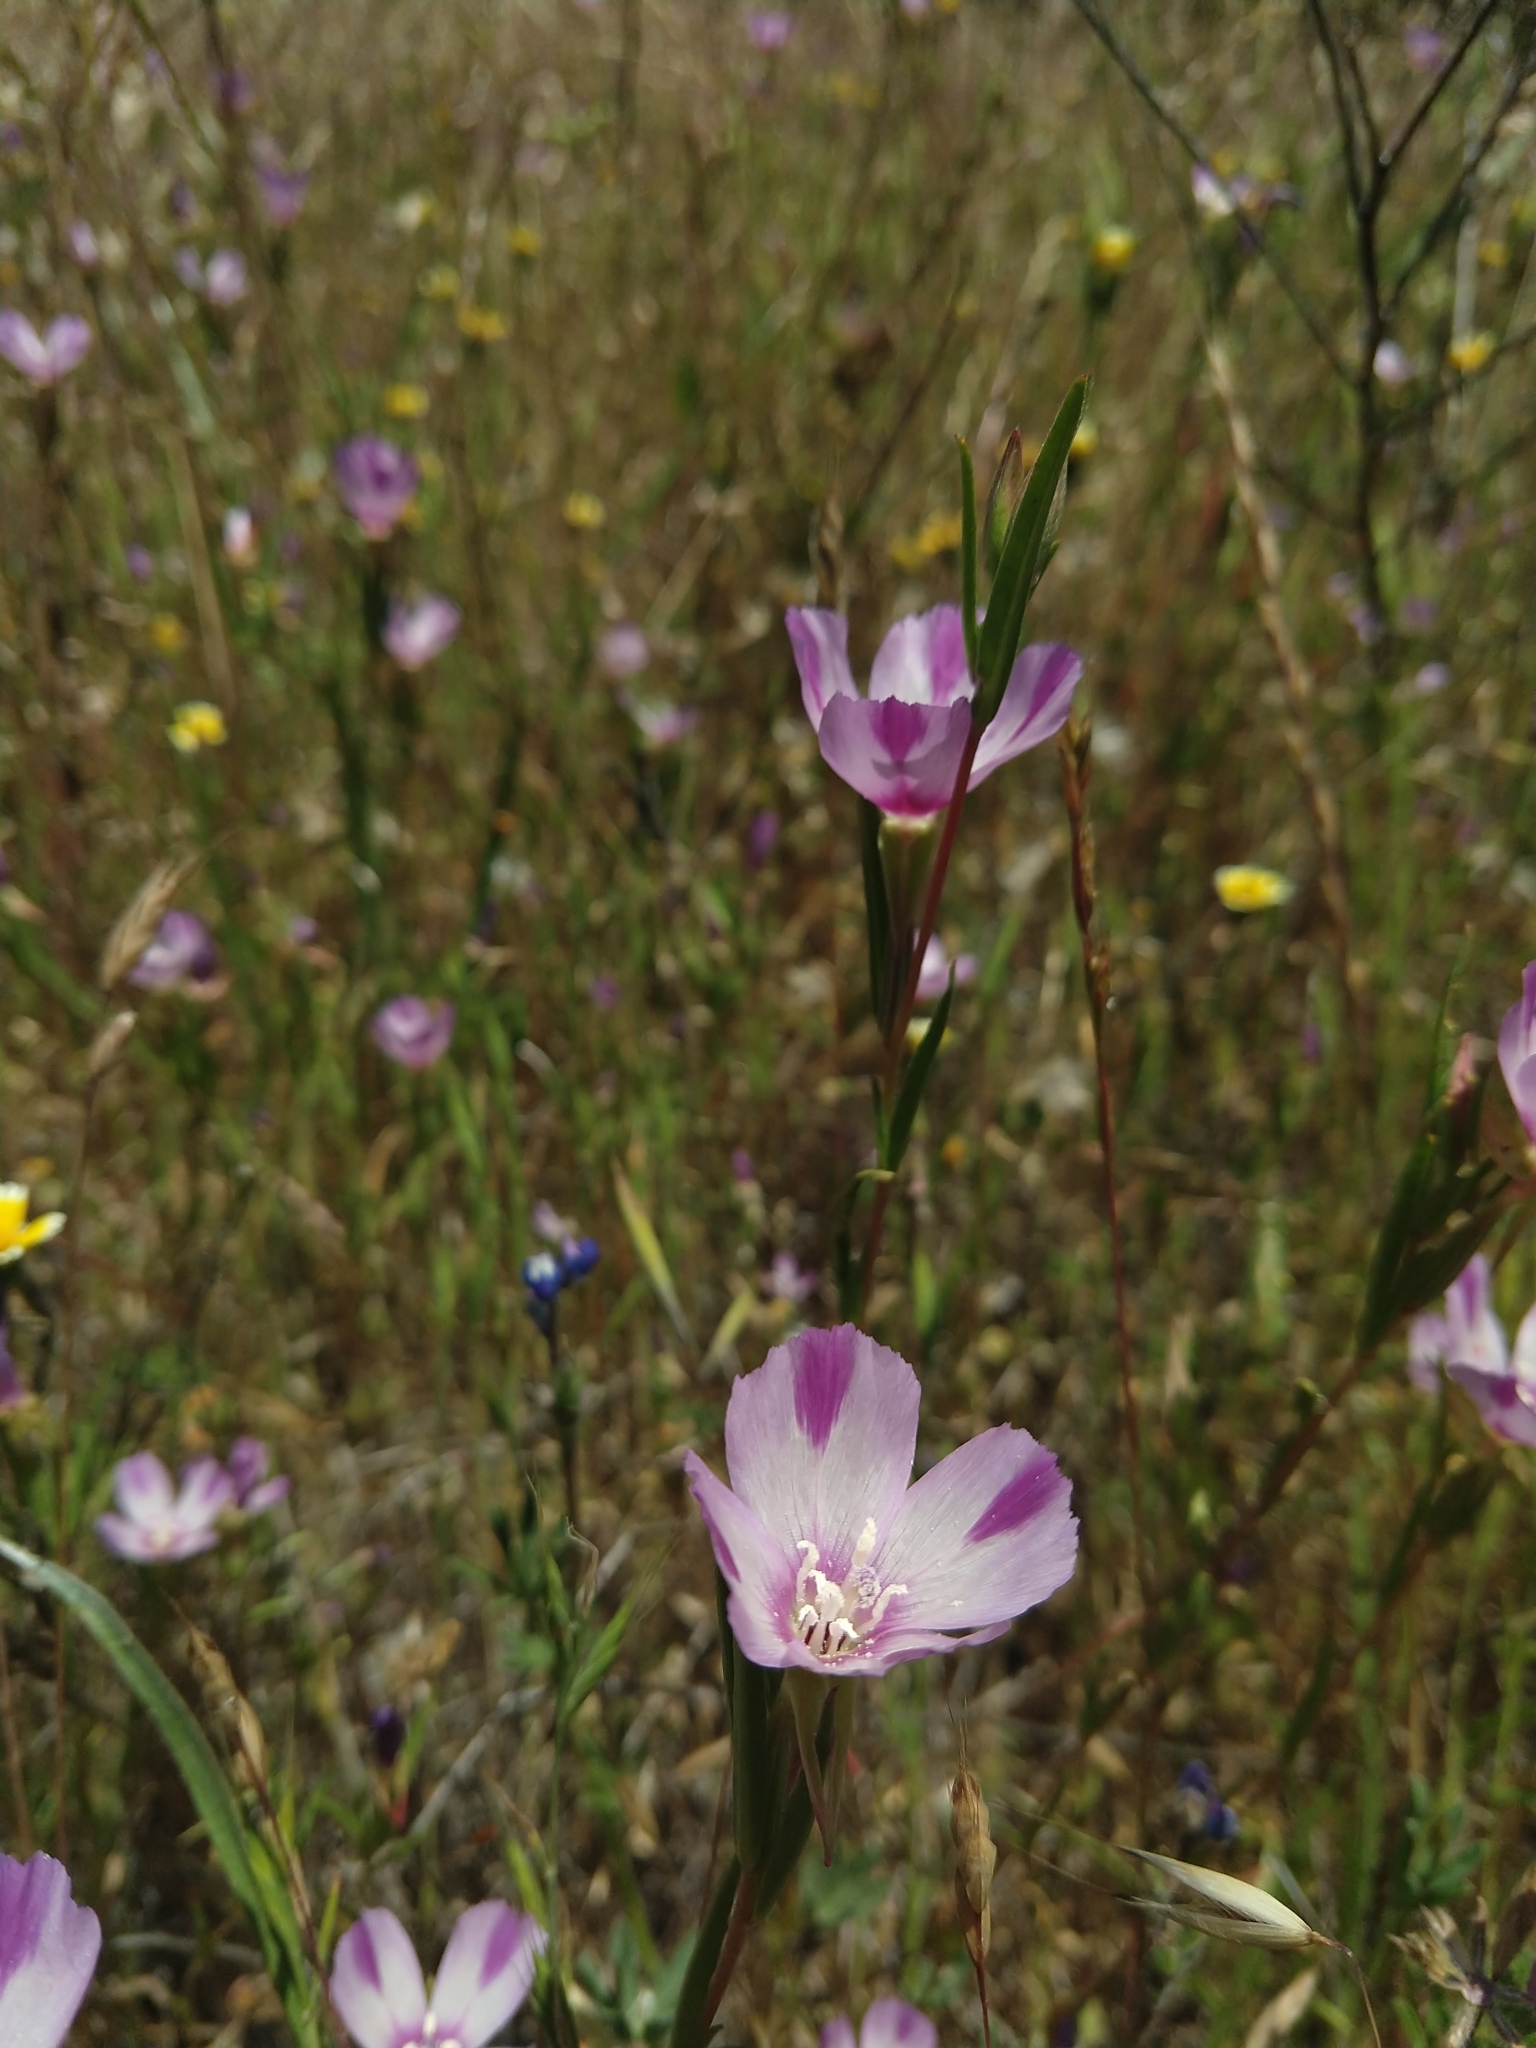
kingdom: Plantae
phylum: Tracheophyta
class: Magnoliopsida
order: Myrtales
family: Onagraceae
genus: Clarkia
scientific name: Clarkia purpurea
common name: Purple clarkia
